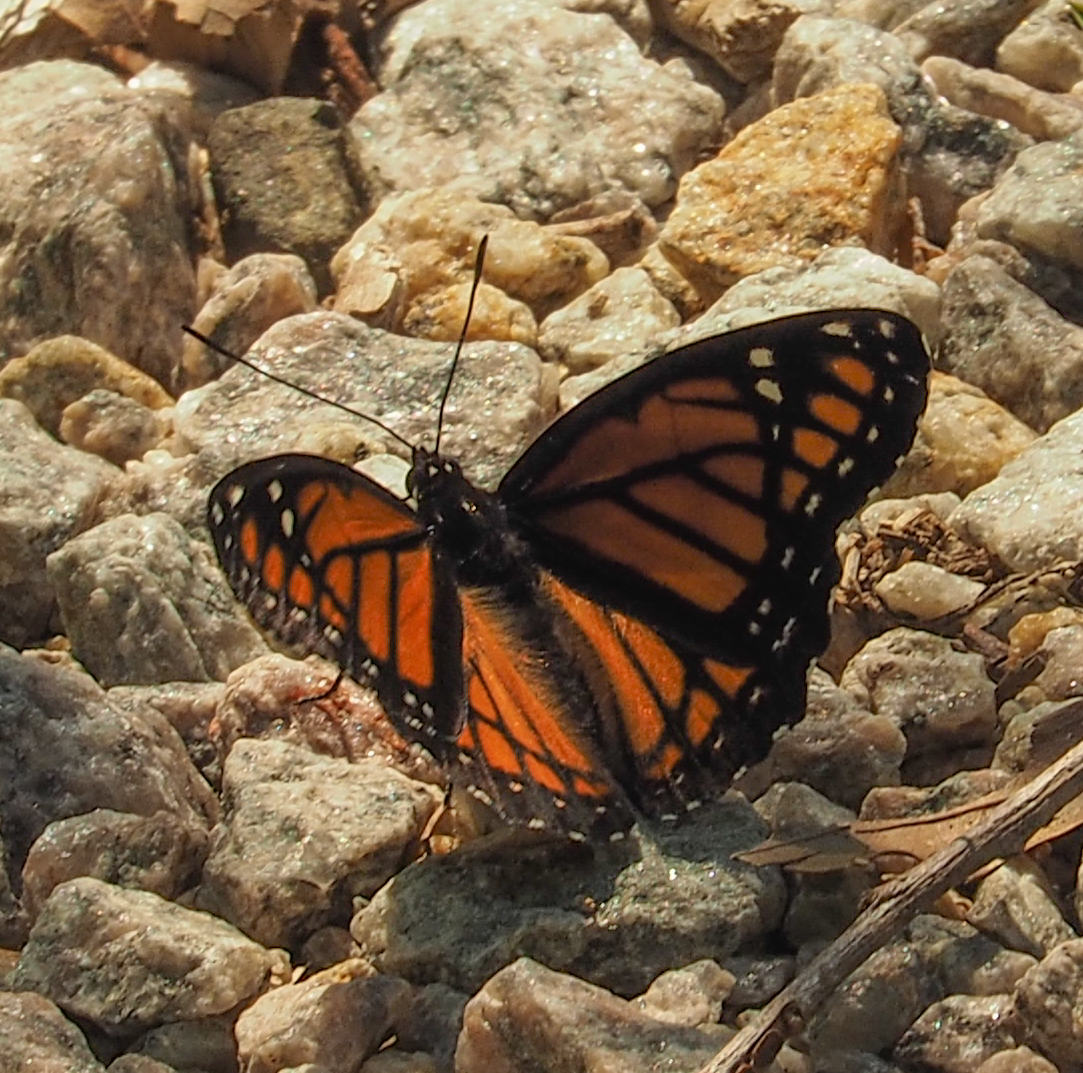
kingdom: Animalia
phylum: Arthropoda
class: Insecta
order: Lepidoptera
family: Nymphalidae
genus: Limenitis
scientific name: Limenitis archippus
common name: Viceroy
